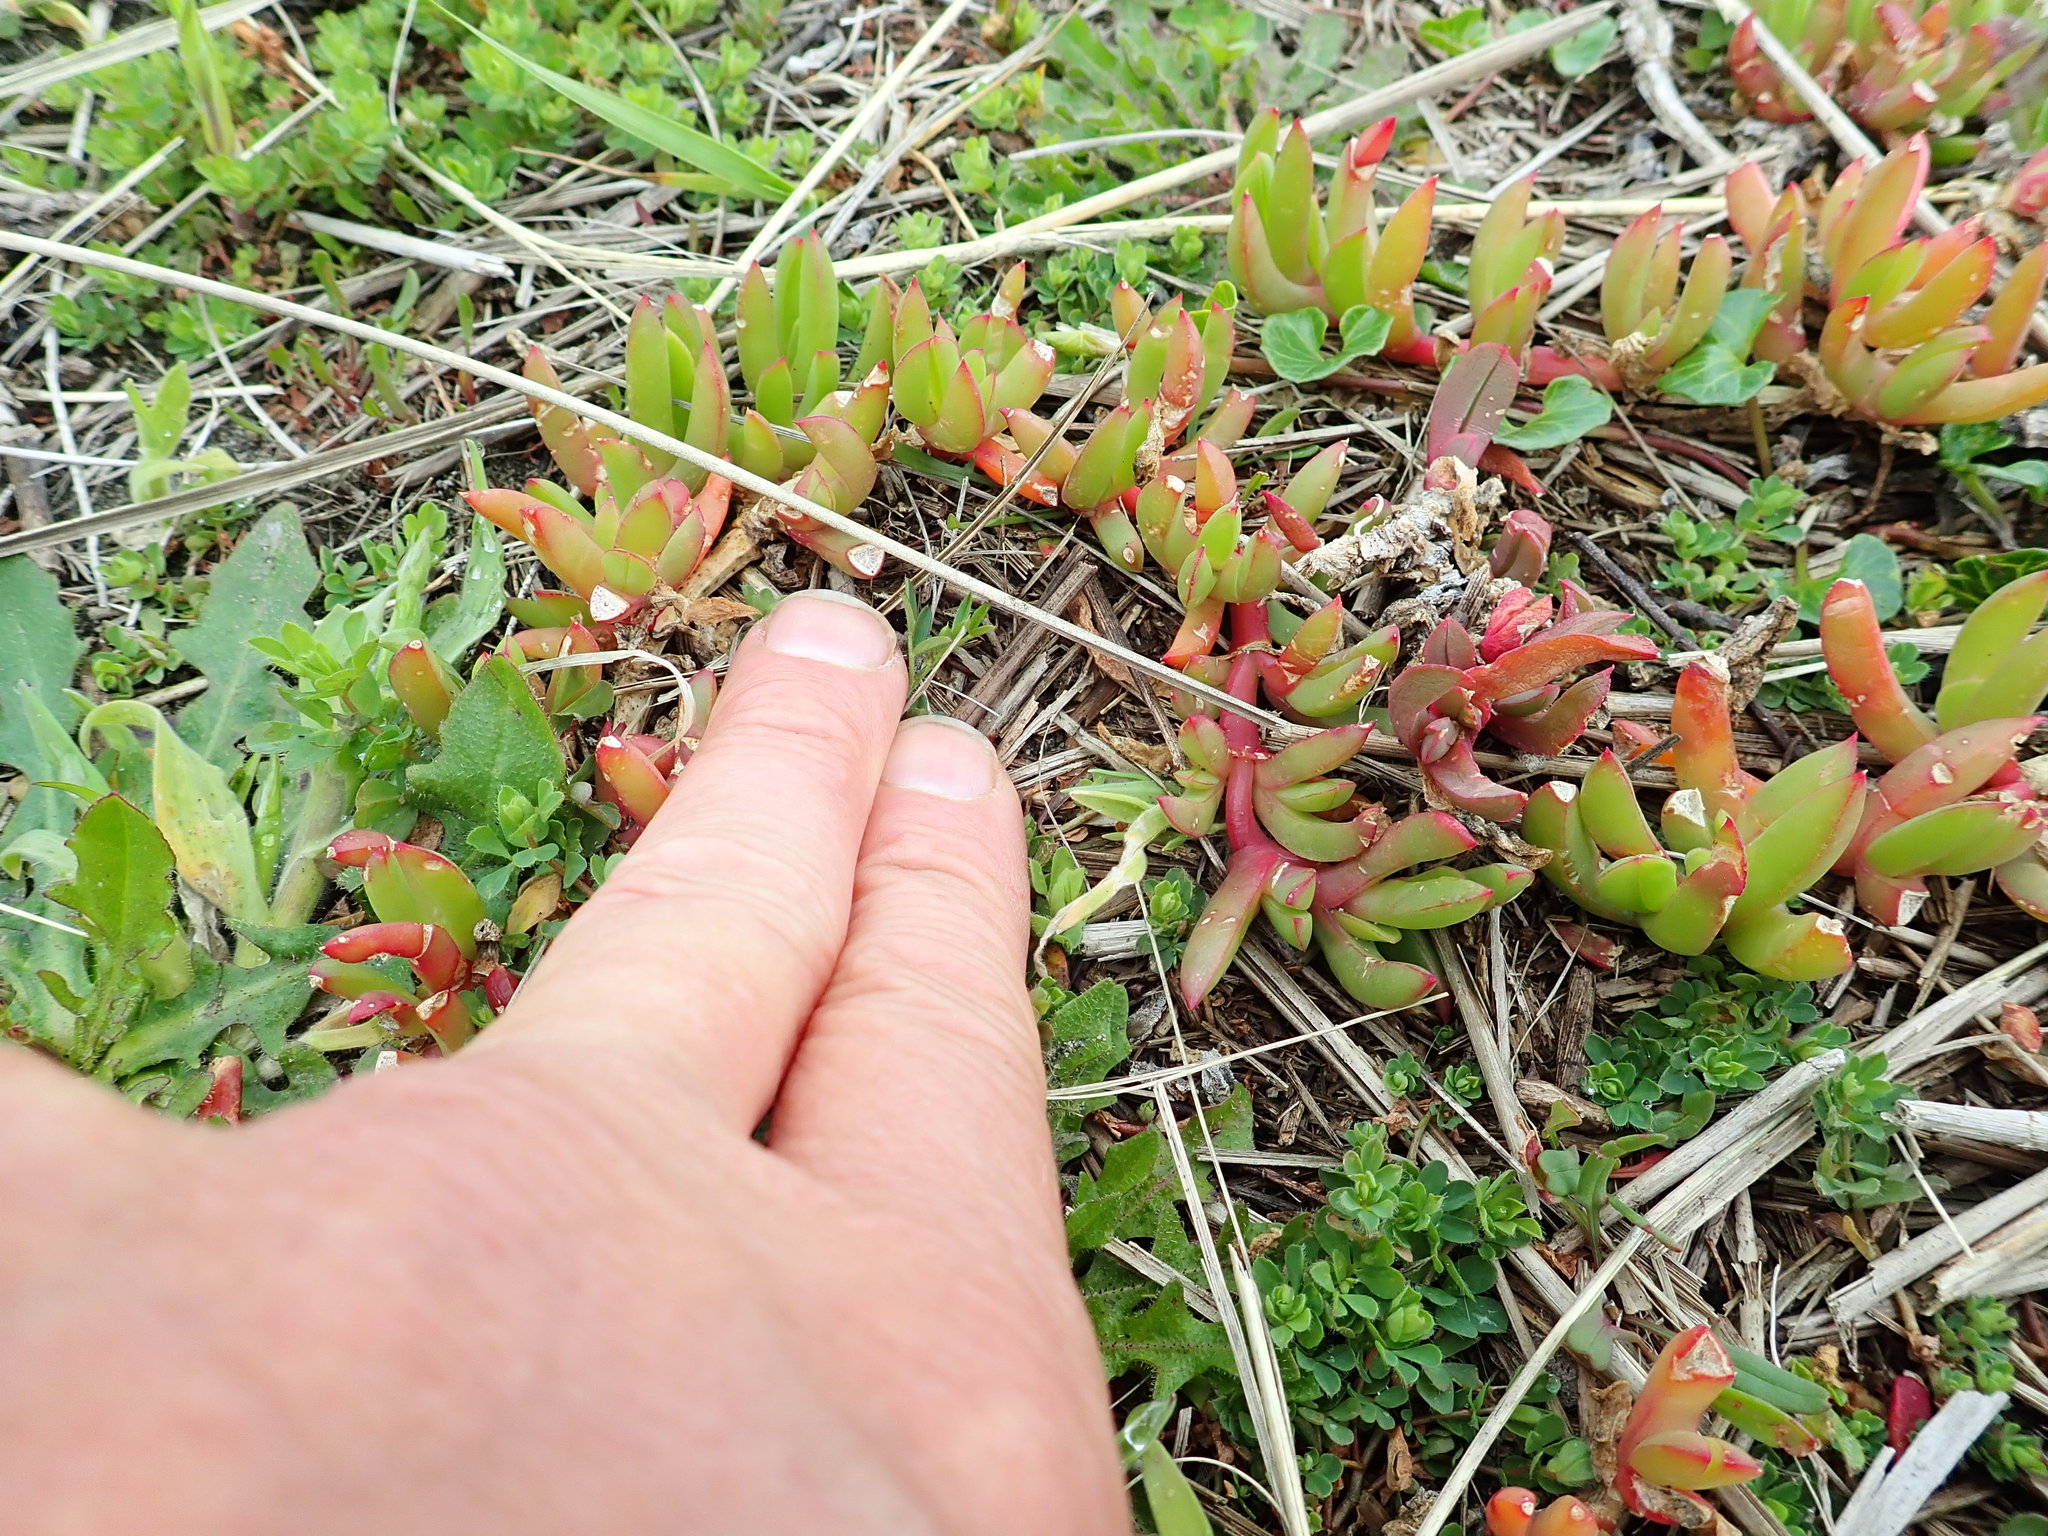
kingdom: Plantae
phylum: Tracheophyta
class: Magnoliopsida
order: Caryophyllales
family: Aizoaceae
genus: Disphyma
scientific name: Disphyma australe
